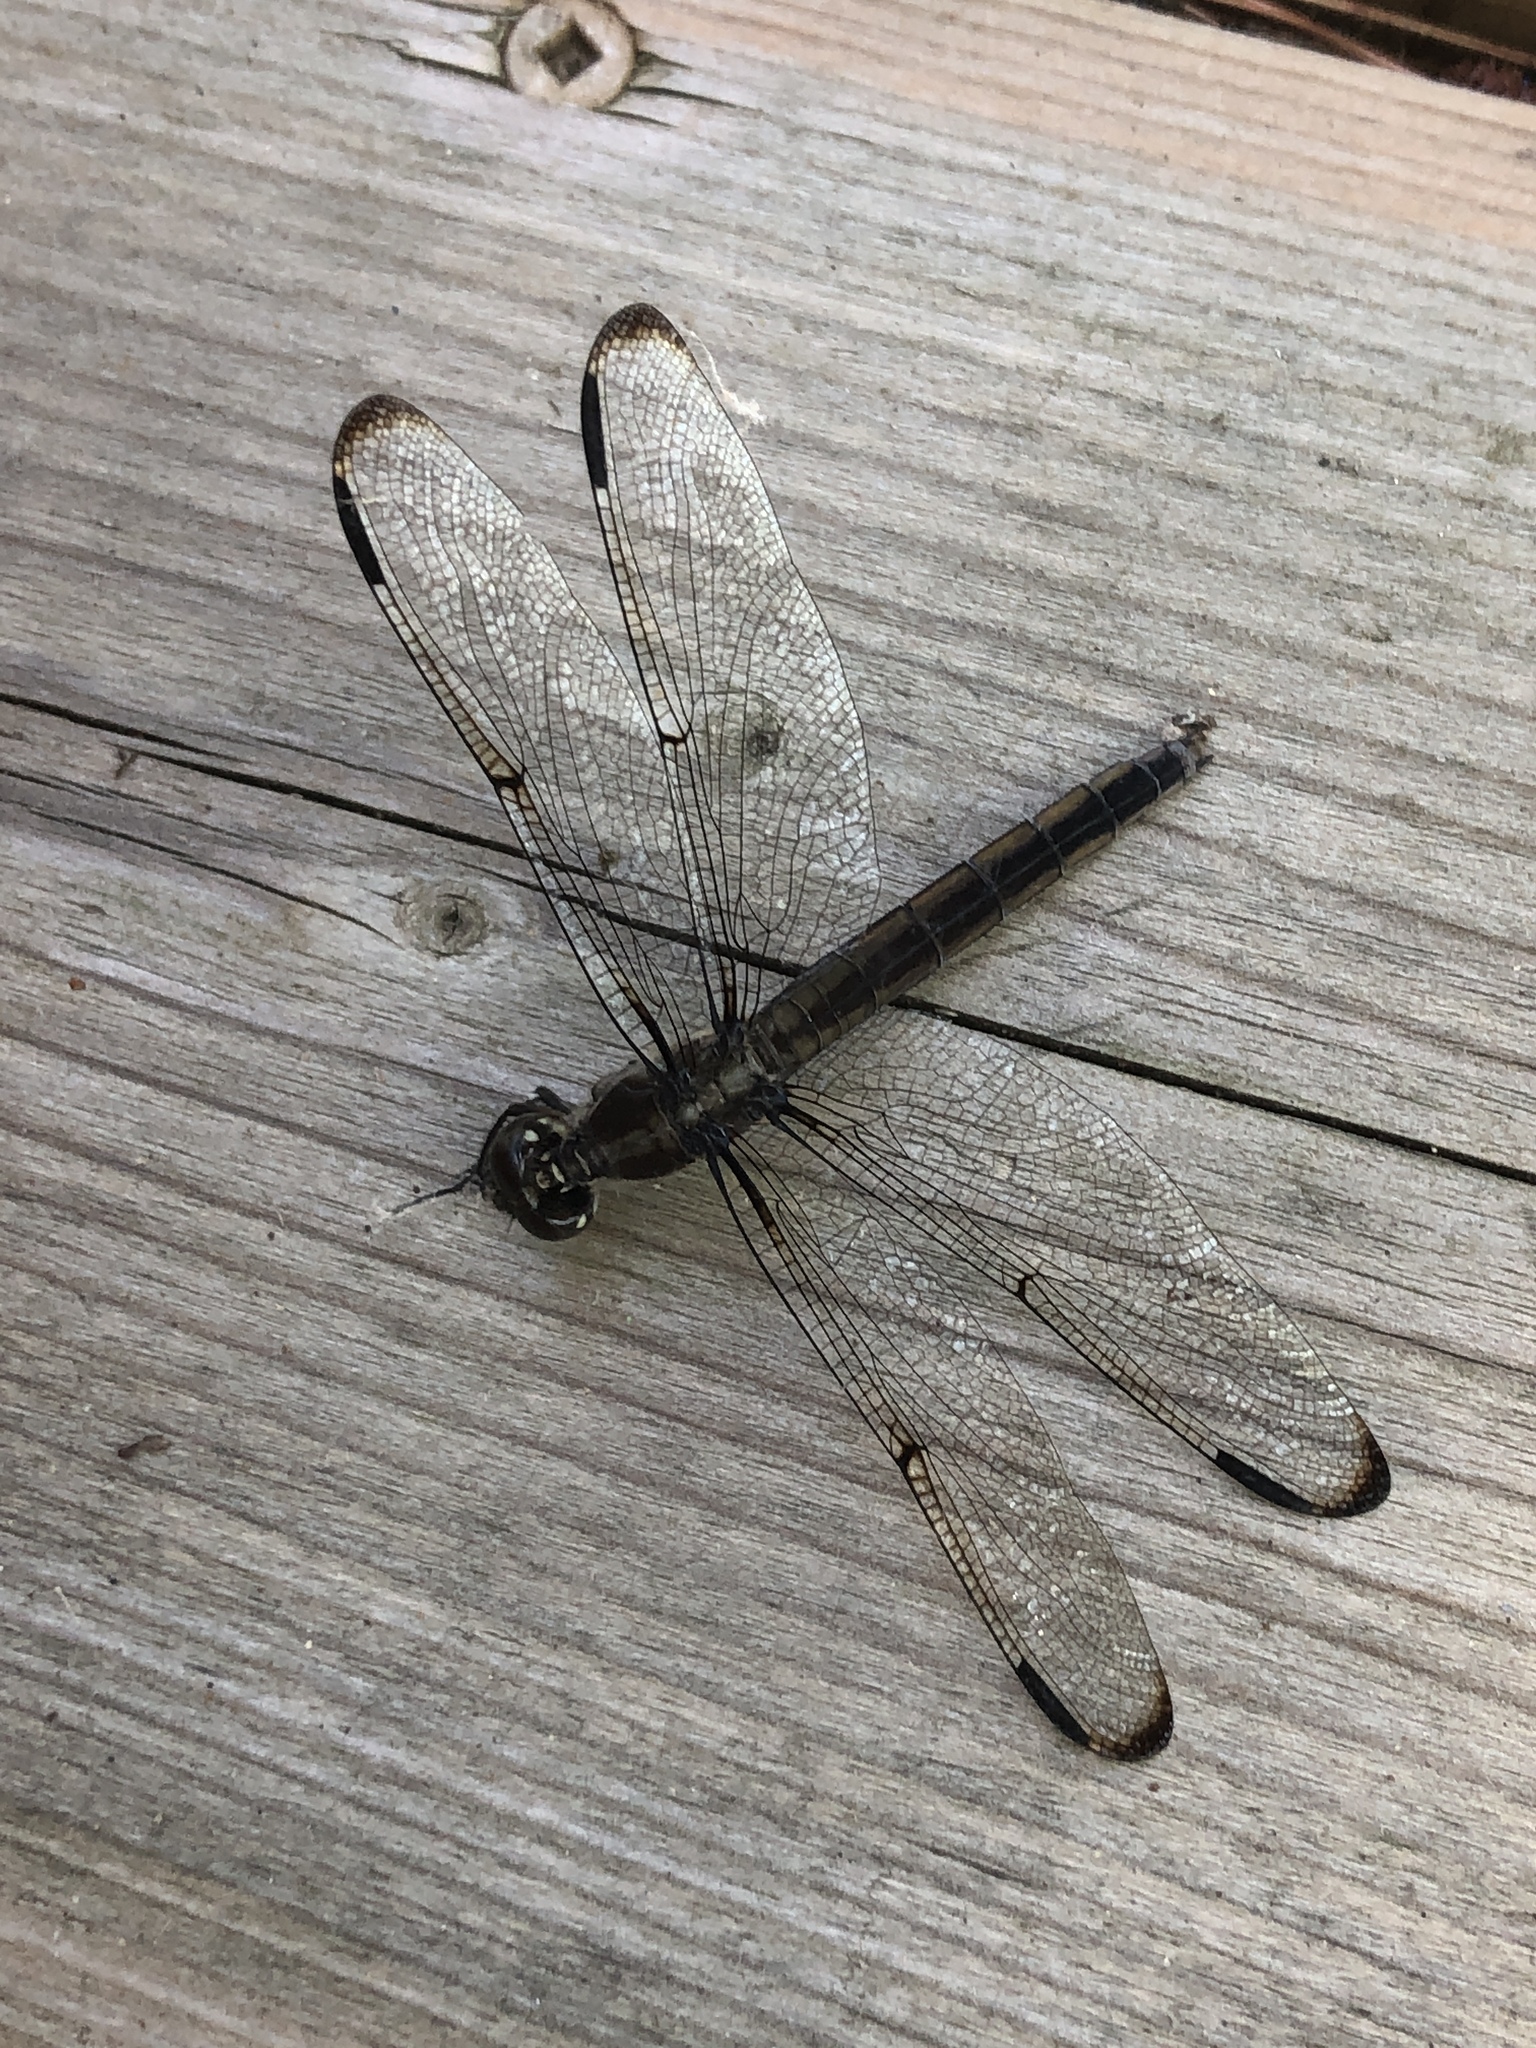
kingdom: Animalia
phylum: Arthropoda
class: Insecta
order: Odonata
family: Libellulidae
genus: Libellula
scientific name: Libellula incesta
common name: Slaty skimmer
